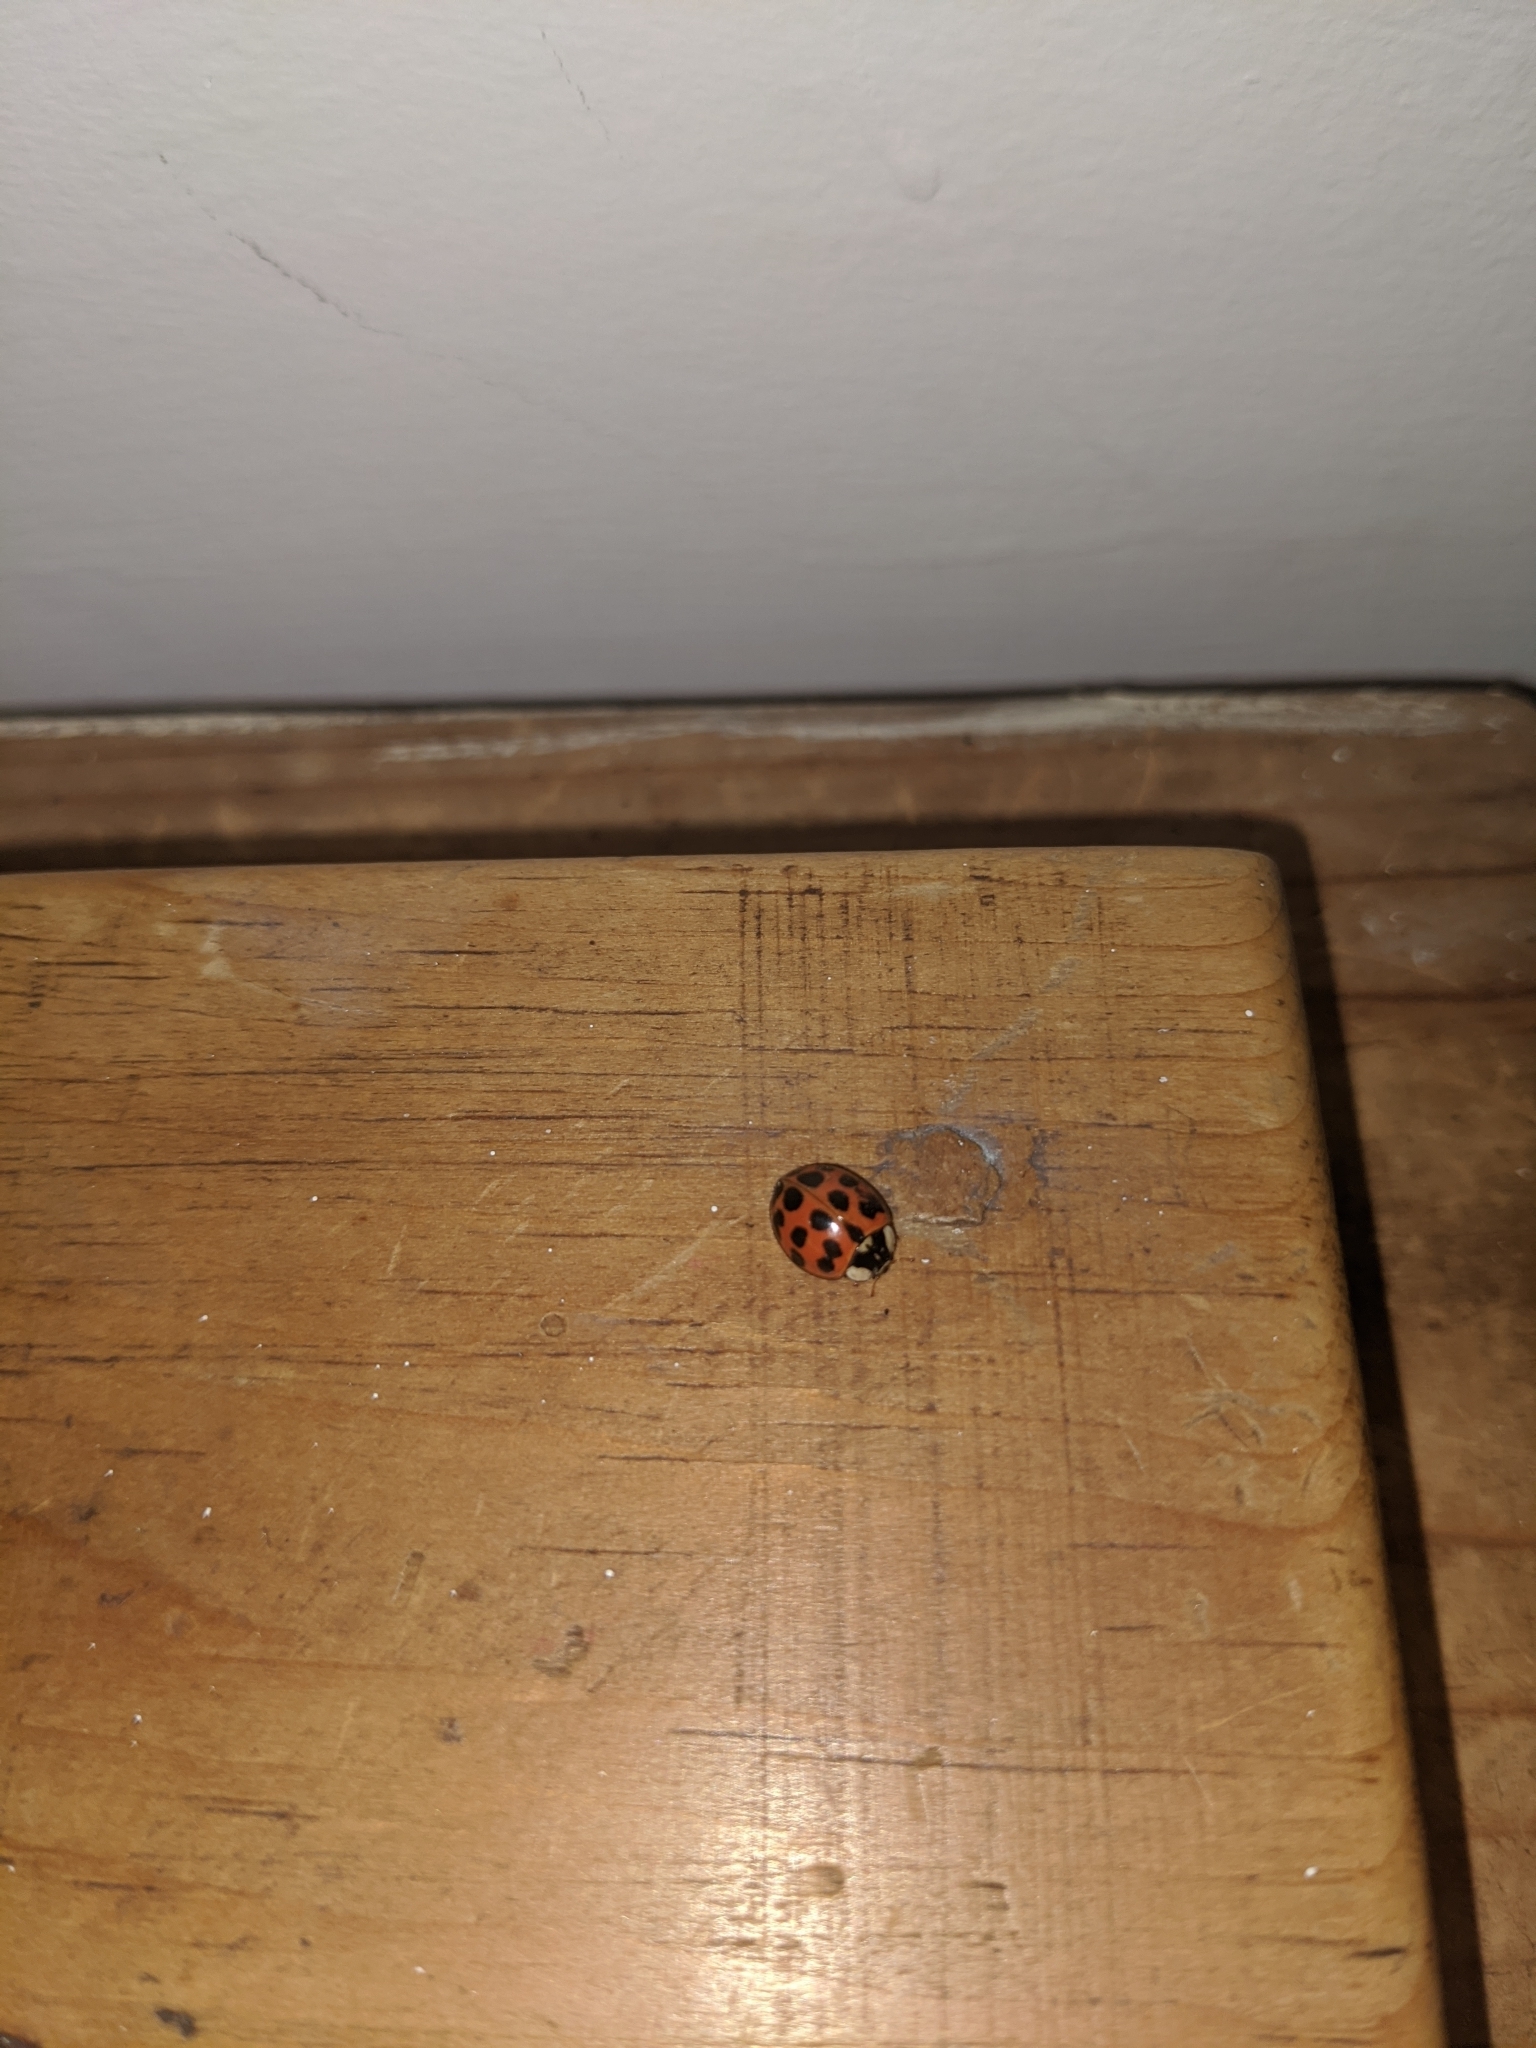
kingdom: Animalia
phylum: Arthropoda
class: Insecta
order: Coleoptera
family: Coccinellidae
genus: Harmonia
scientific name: Harmonia axyridis
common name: Harlequin ladybird
